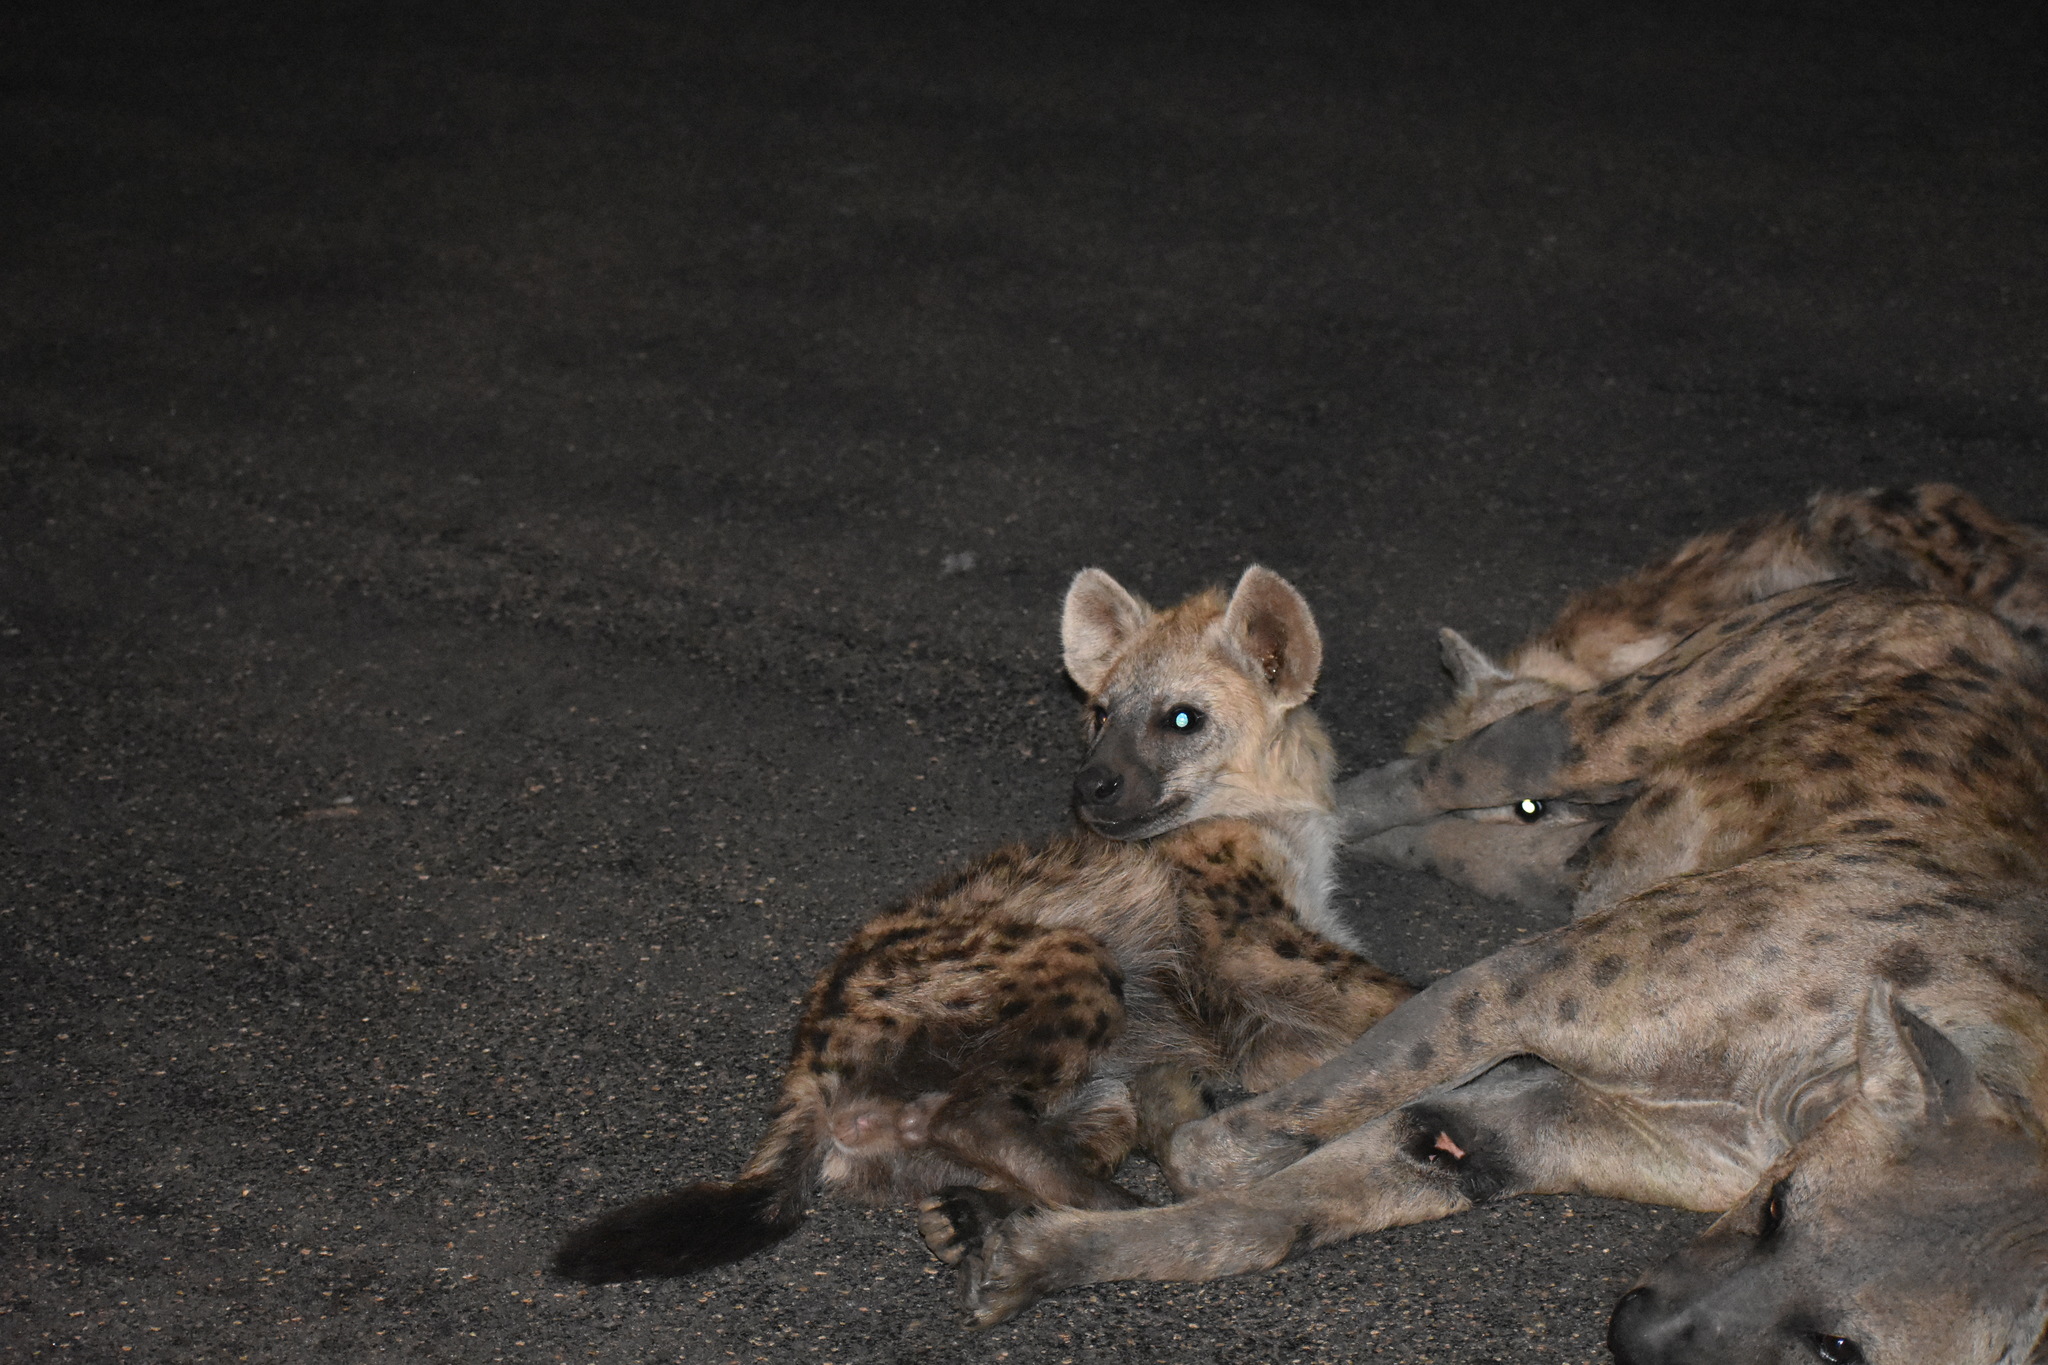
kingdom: Animalia
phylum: Chordata
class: Mammalia
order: Carnivora
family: Hyaenidae
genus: Crocuta
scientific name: Crocuta crocuta
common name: Spotted hyaena
